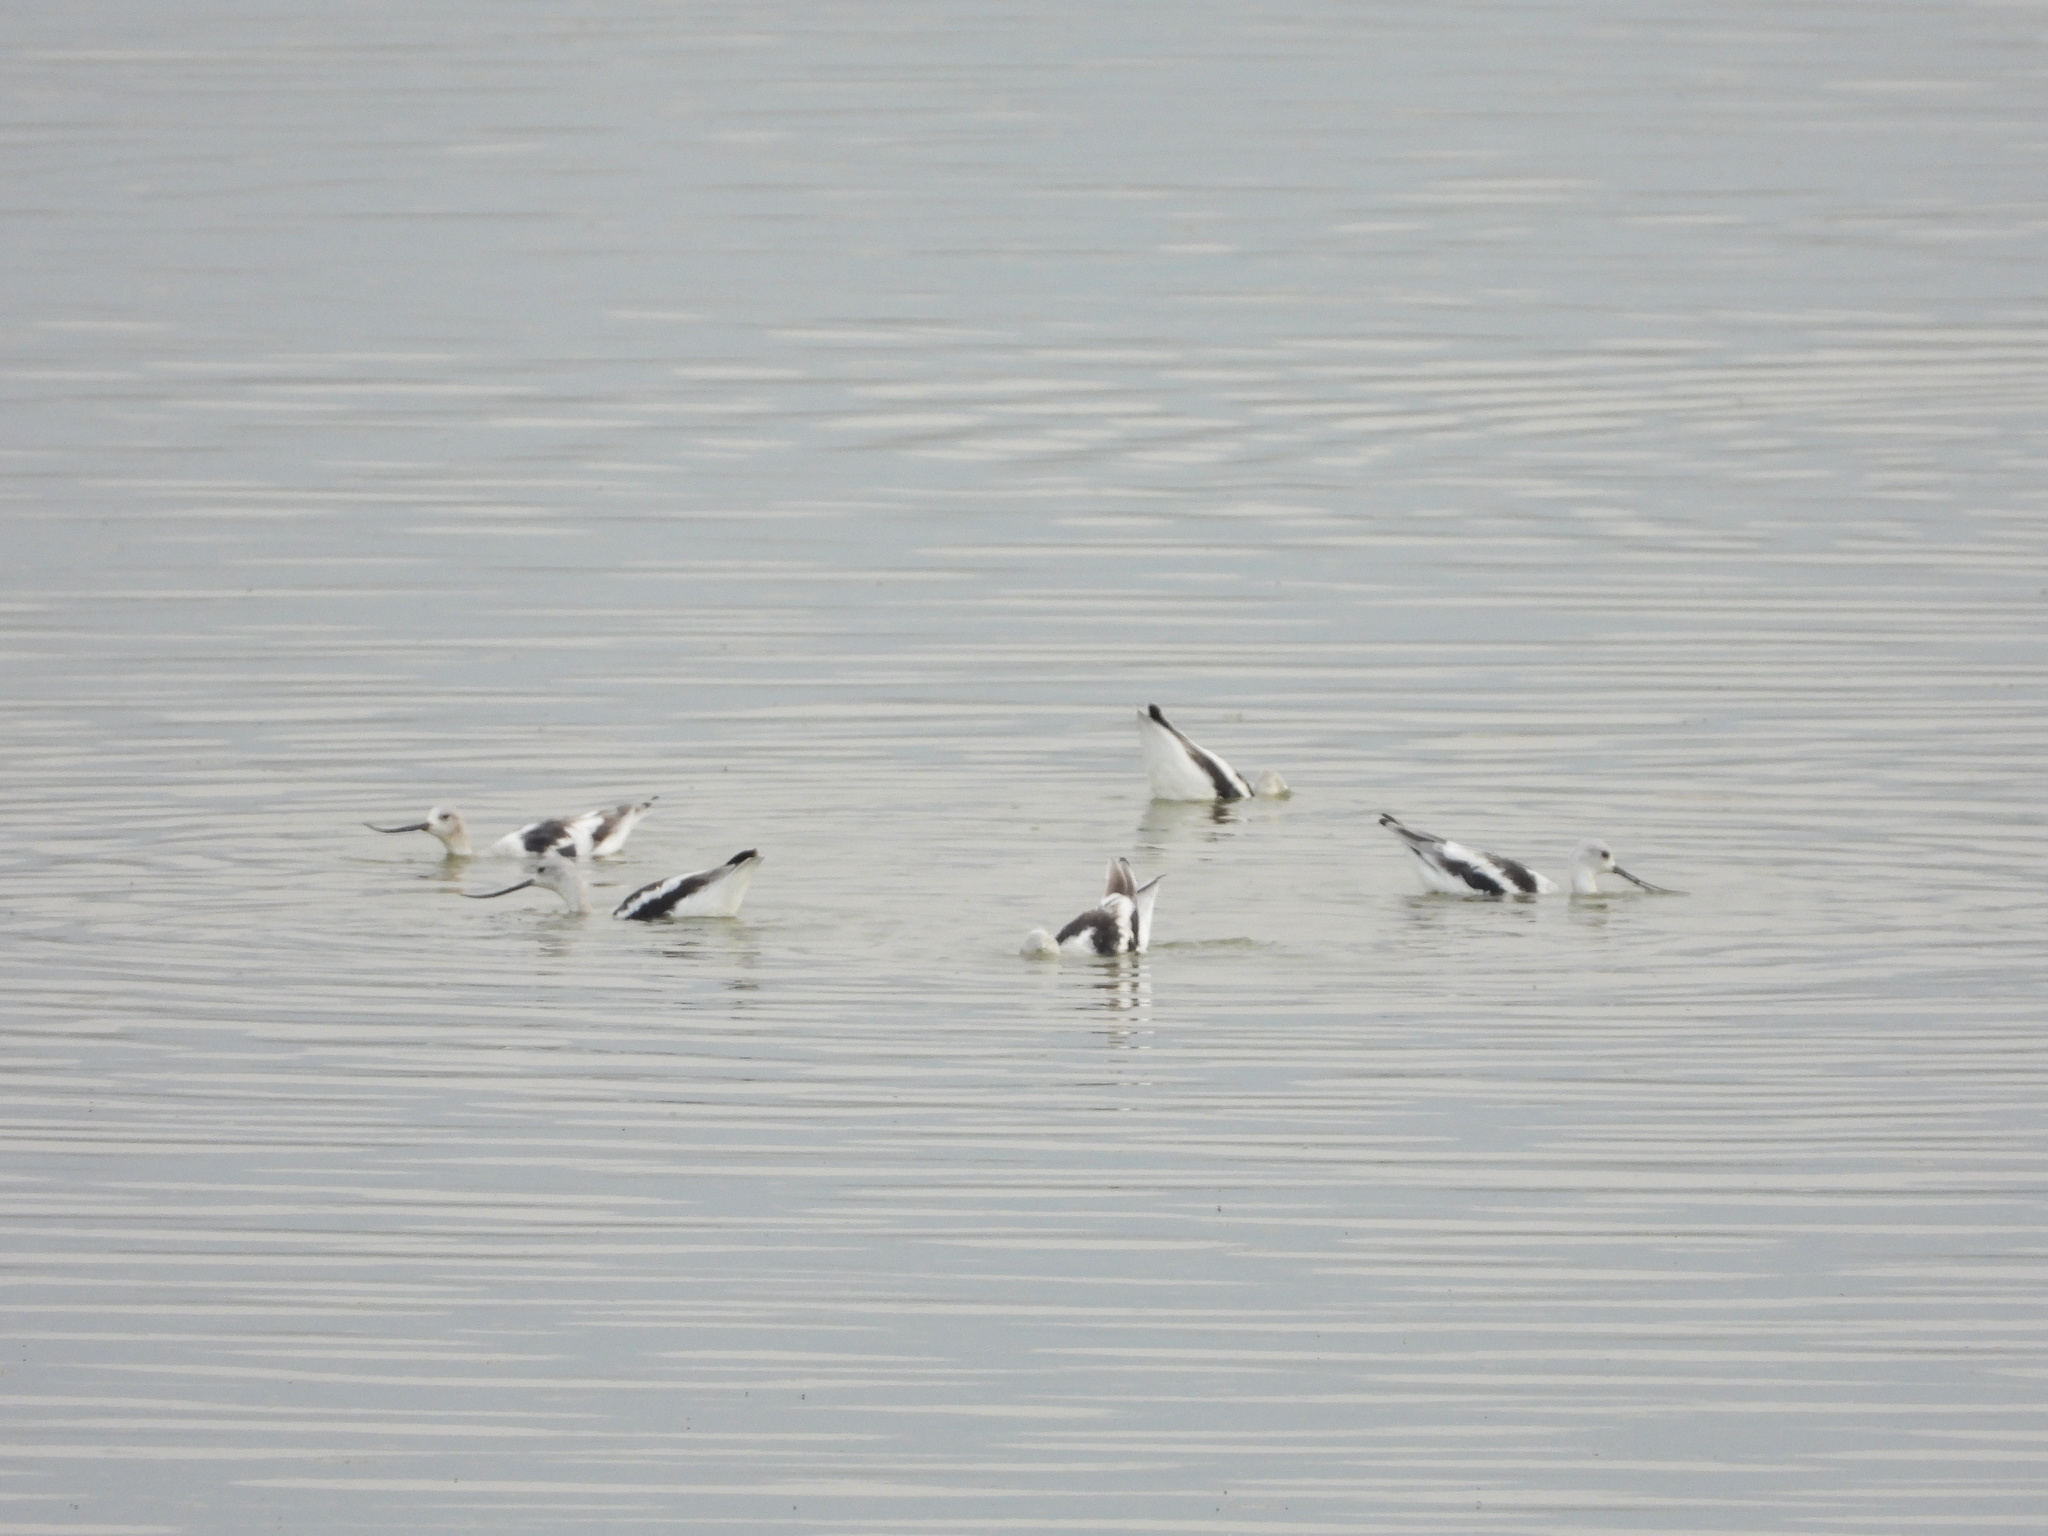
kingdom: Animalia
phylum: Chordata
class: Aves
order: Charadriiformes
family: Recurvirostridae
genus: Recurvirostra
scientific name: Recurvirostra americana
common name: American avocet
